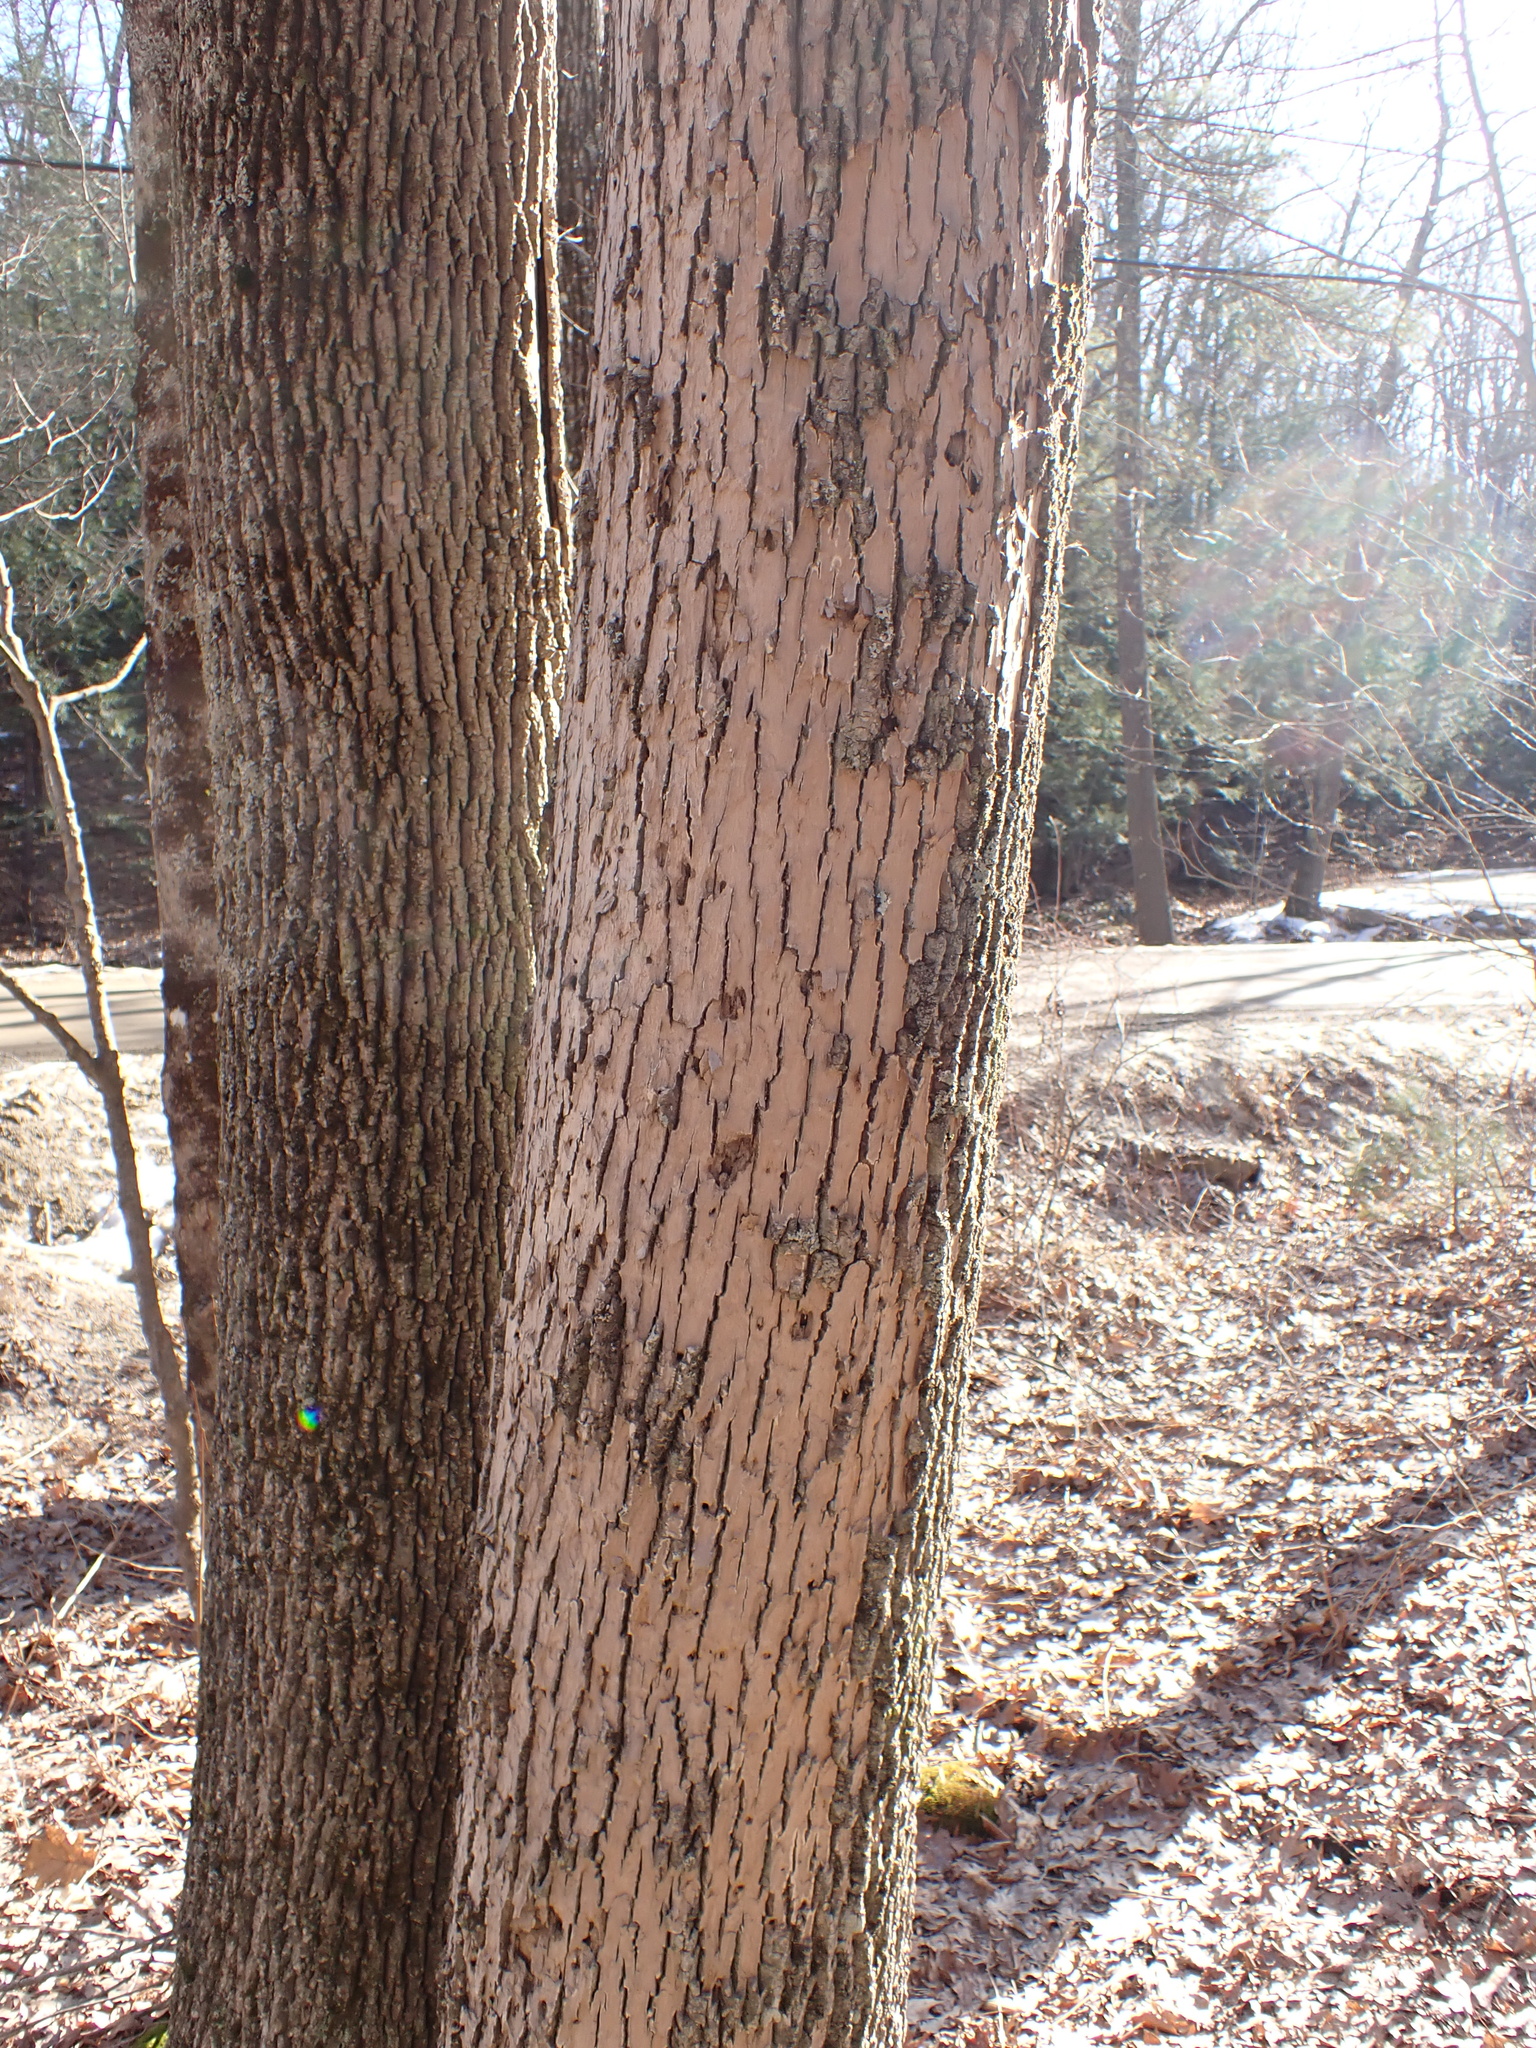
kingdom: Plantae
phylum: Tracheophyta
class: Magnoliopsida
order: Lamiales
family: Oleaceae
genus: Fraxinus
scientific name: Fraxinus americana
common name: White ash
